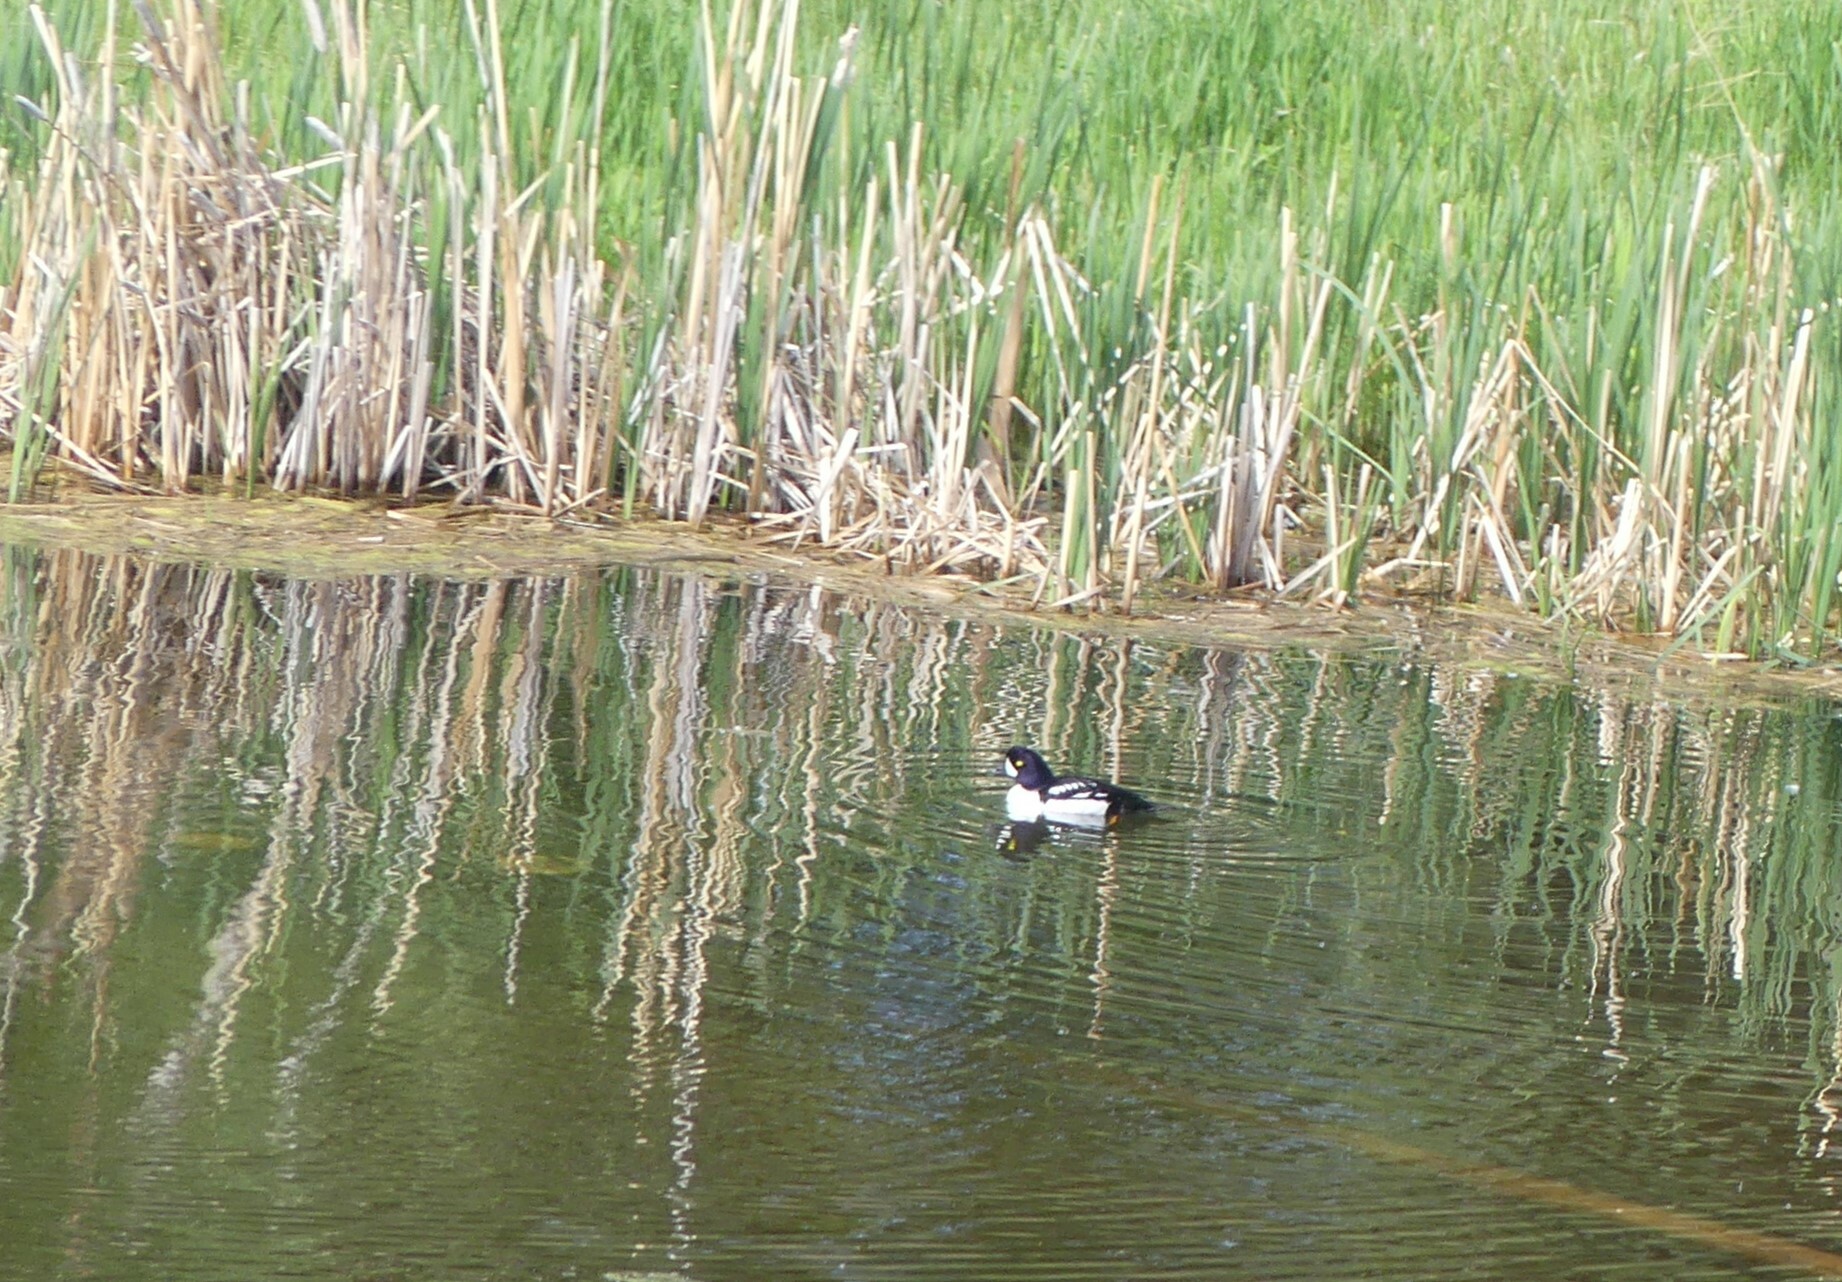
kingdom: Animalia
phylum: Chordata
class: Aves
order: Anseriformes
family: Anatidae
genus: Bucephala
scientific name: Bucephala islandica
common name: Barrow's goldeneye
